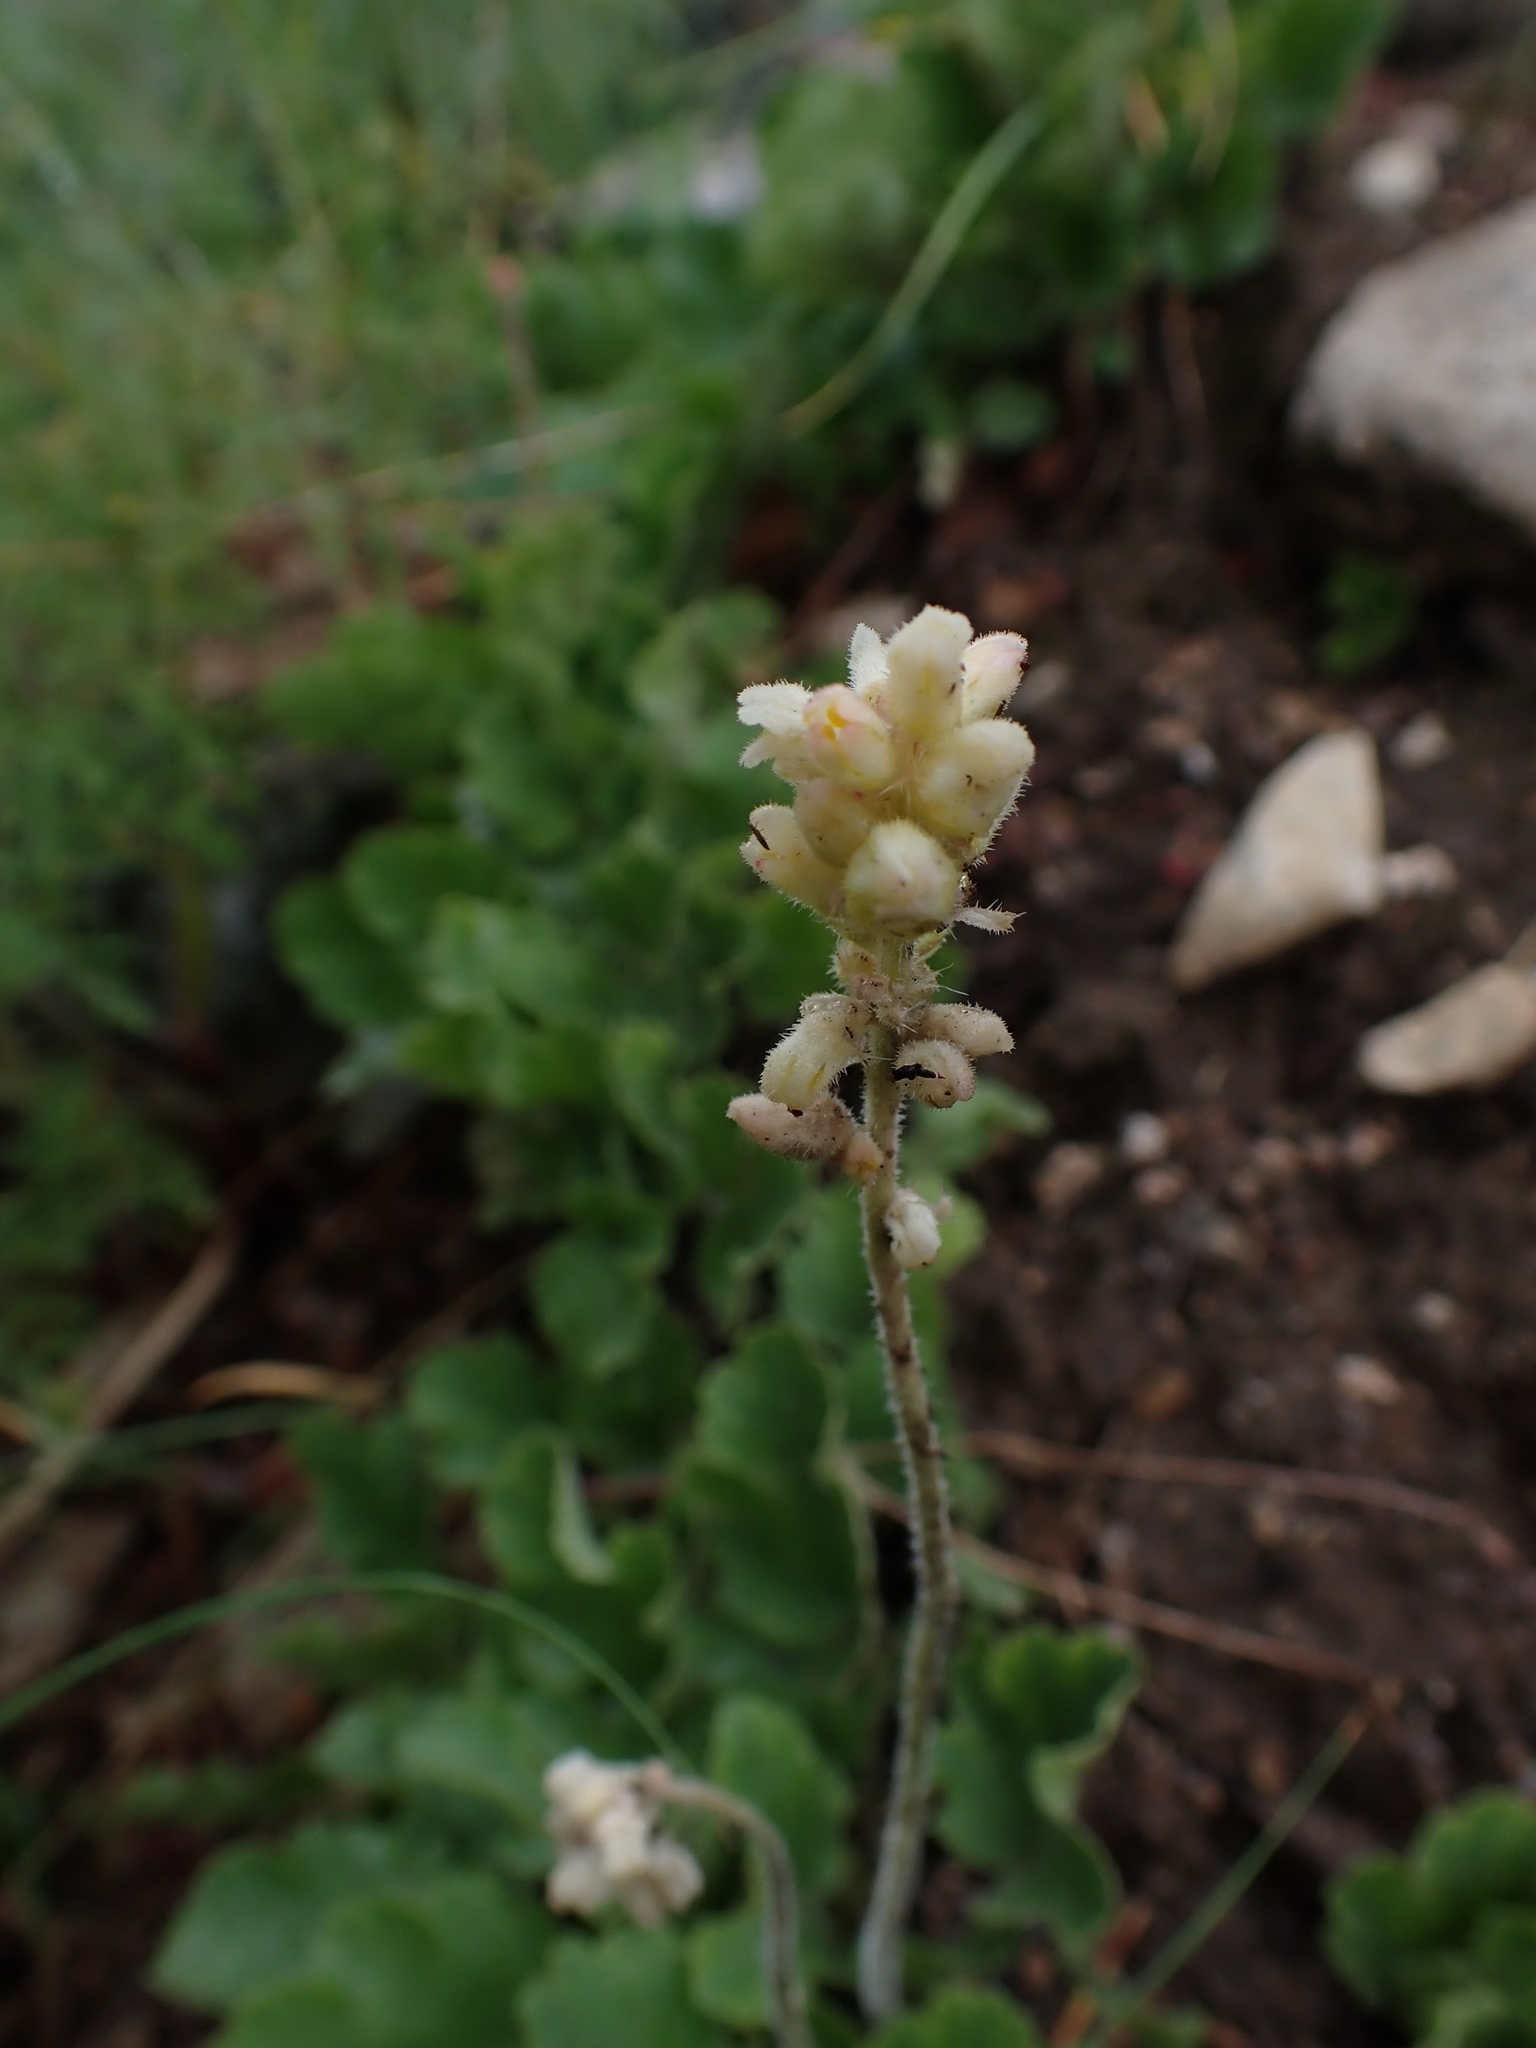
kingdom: Plantae
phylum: Tracheophyta
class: Magnoliopsida
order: Saxifragales
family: Saxifragaceae
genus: Heuchera
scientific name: Heuchera cylindrica
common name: Mat alumroot
